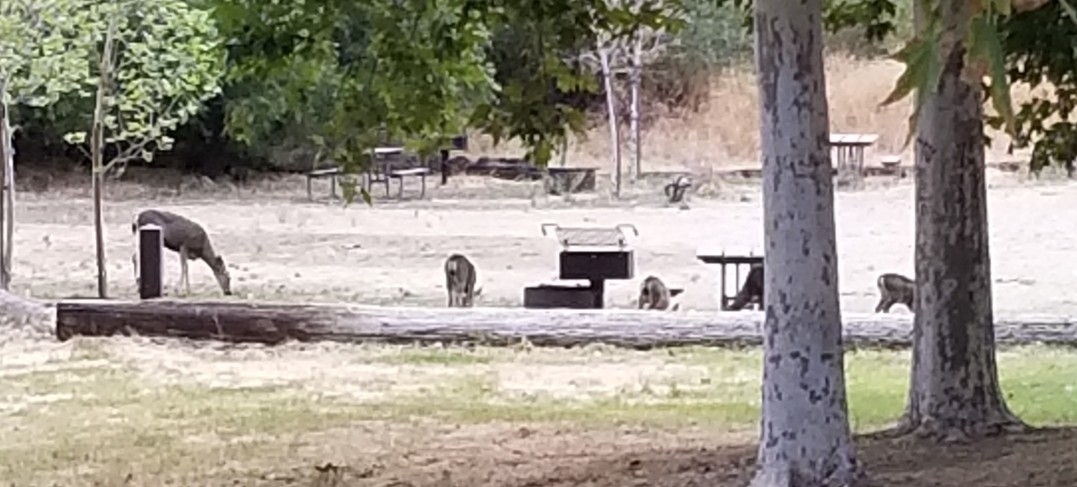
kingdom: Animalia
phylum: Chordata
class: Mammalia
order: Artiodactyla
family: Cervidae
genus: Odocoileus
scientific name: Odocoileus hemionus
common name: Mule deer
